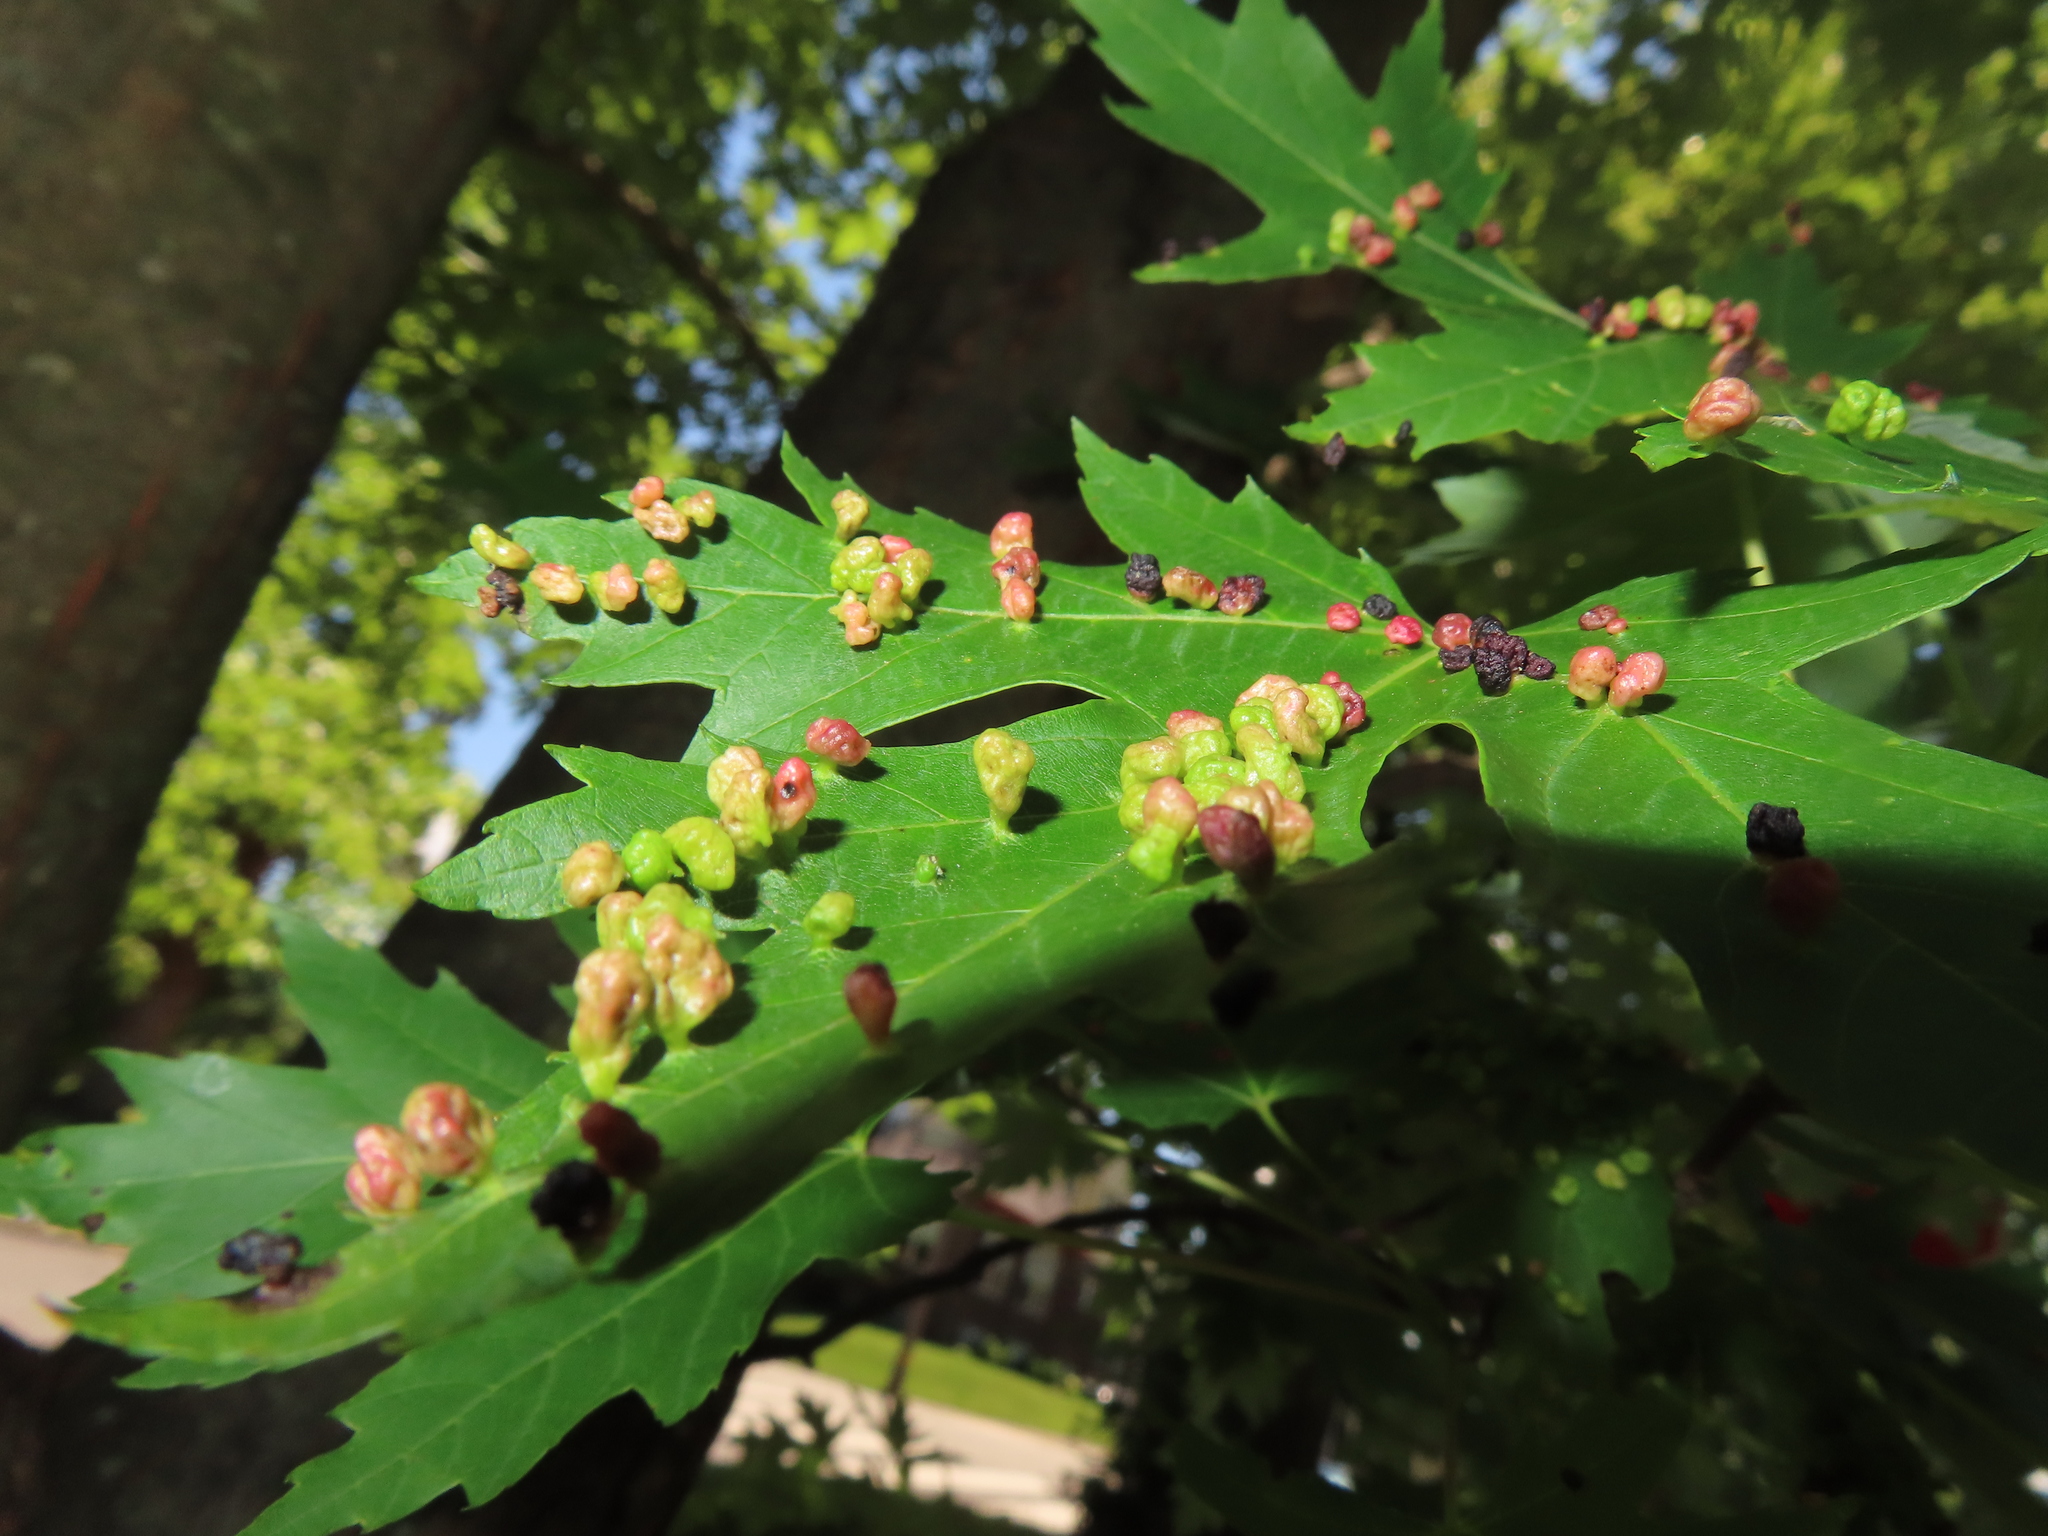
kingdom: Animalia
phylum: Arthropoda
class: Arachnida
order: Trombidiformes
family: Eriophyidae
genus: Vasates
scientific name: Vasates quadripedes
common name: Maple bladder gall mite
